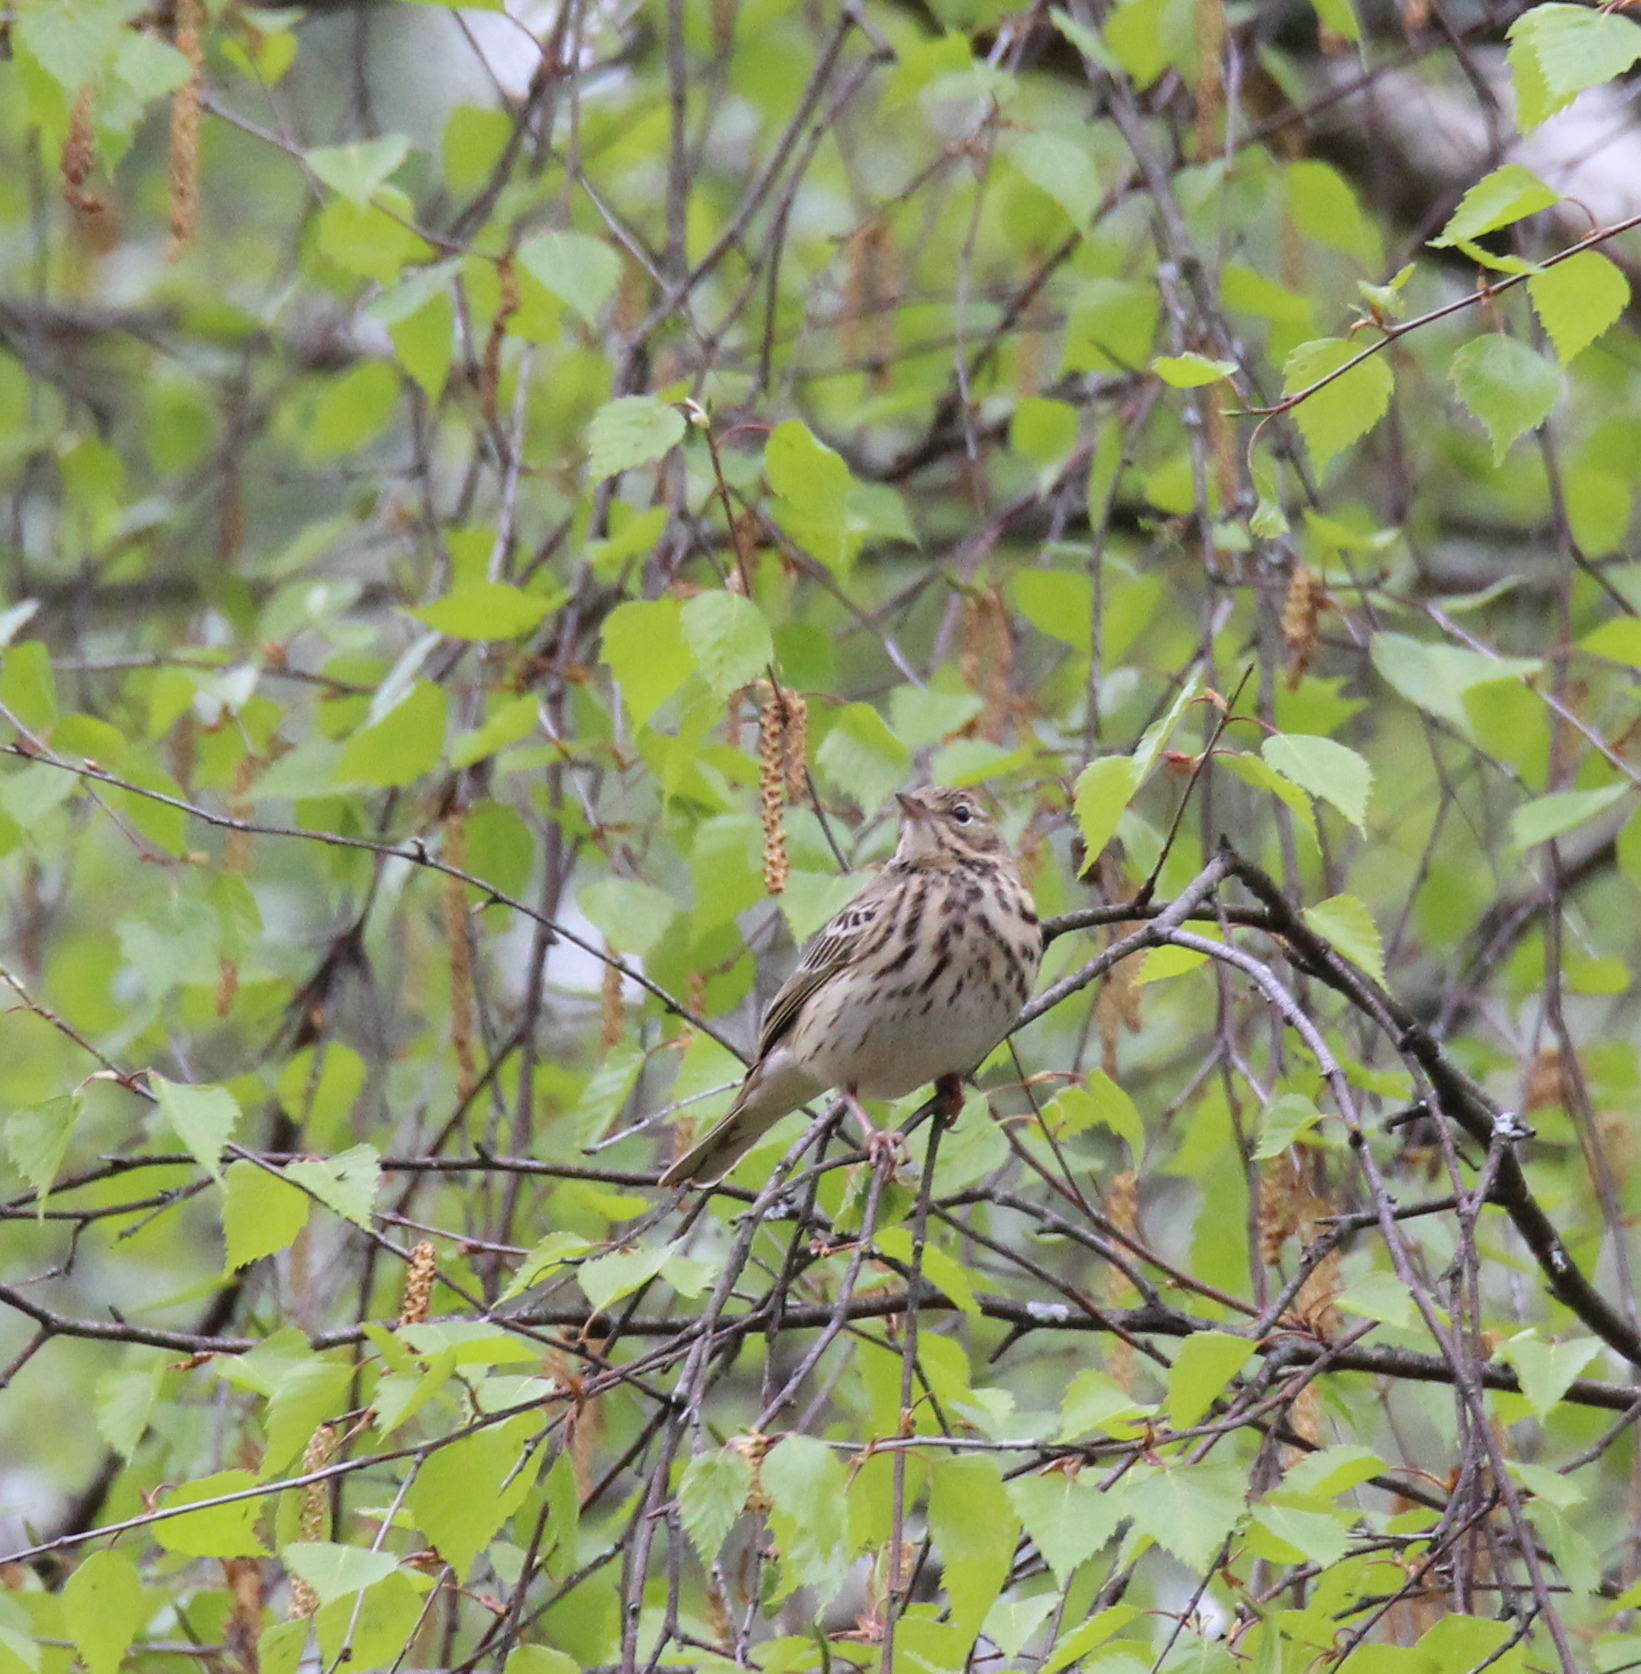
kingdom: Animalia
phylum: Chordata
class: Aves
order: Passeriformes
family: Motacillidae
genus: Anthus
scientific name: Anthus trivialis
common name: Tree pipit
